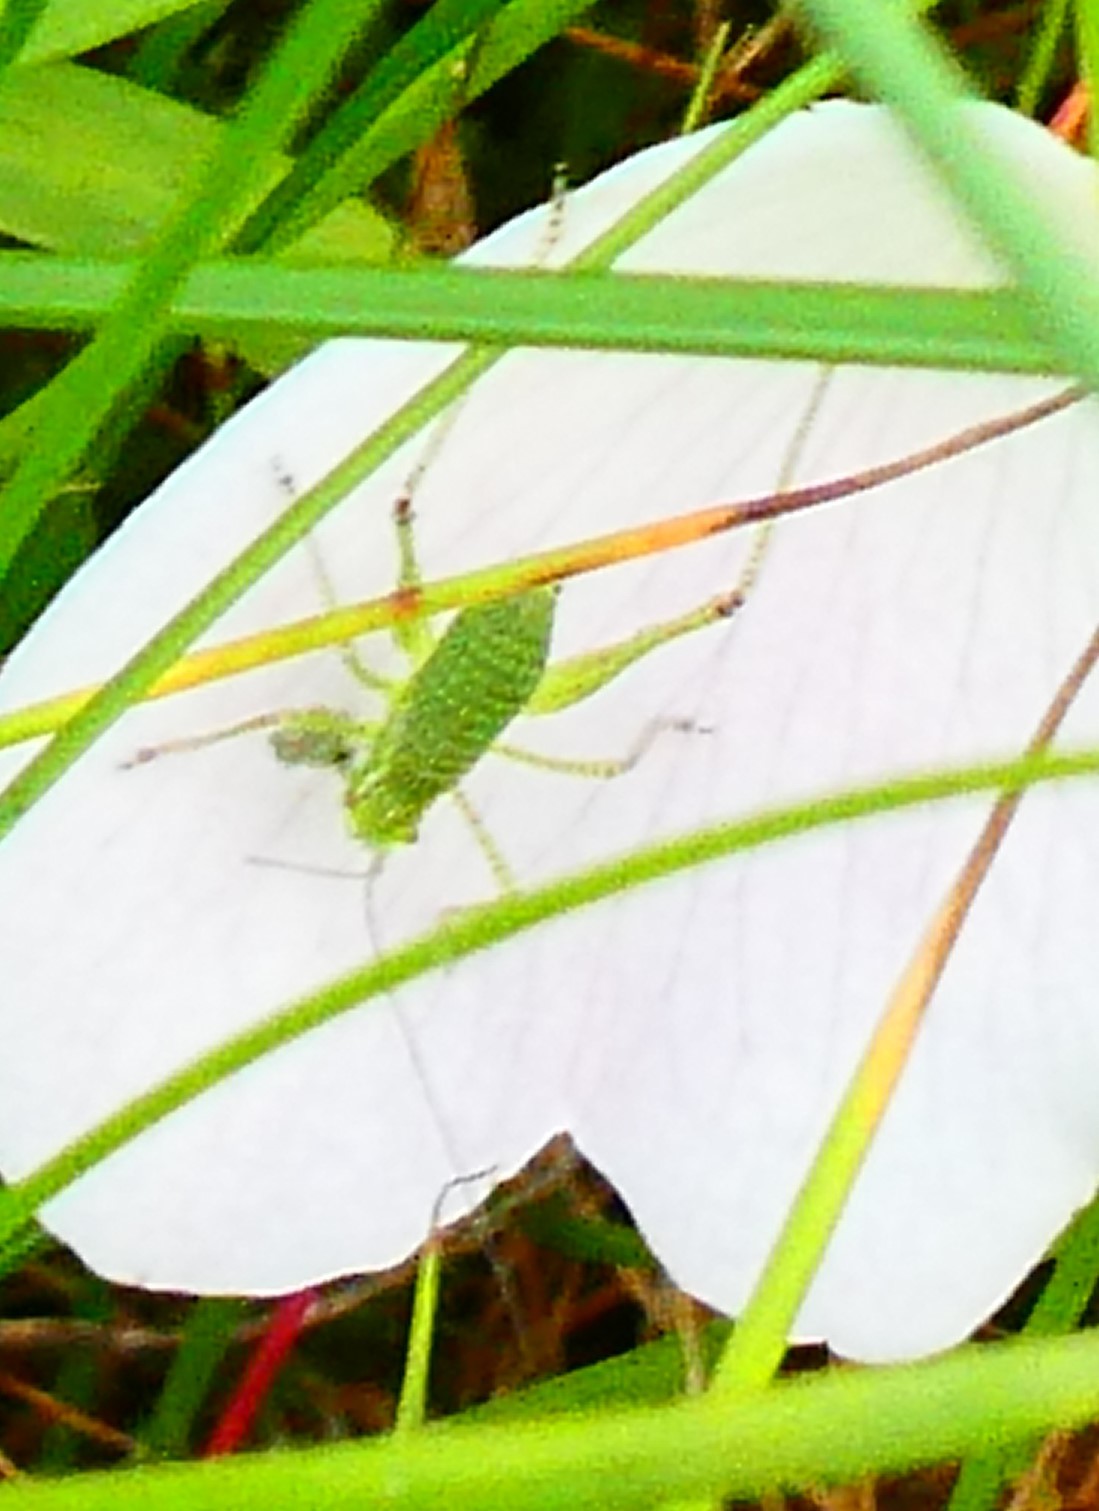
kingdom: Animalia
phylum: Arthropoda
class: Insecta
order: Orthoptera
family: Tettigoniidae
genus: Leptophyes
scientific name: Leptophyes punctatissima
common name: Speckled bush-cricket
